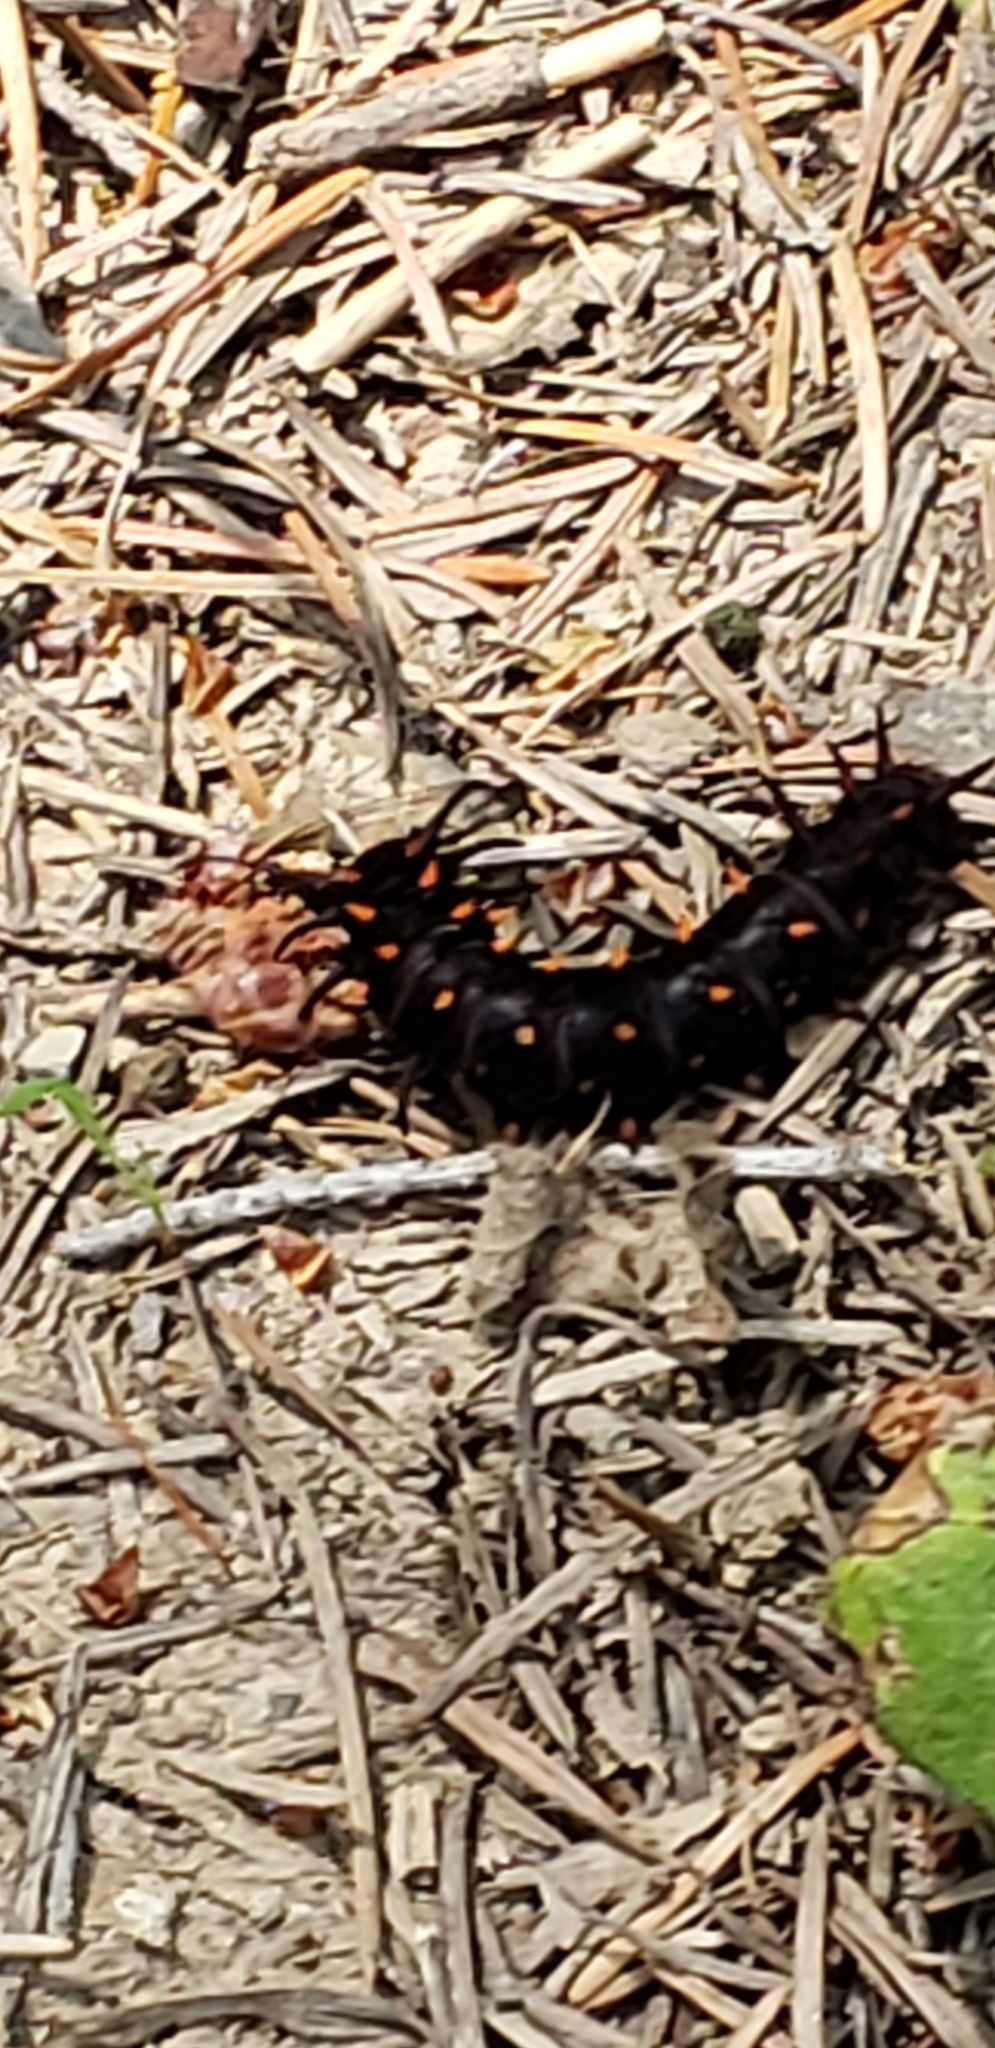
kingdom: Animalia
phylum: Arthropoda
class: Insecta
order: Lepidoptera
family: Papilionidae
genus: Battus
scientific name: Battus philenor
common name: Pipevine swallowtail
